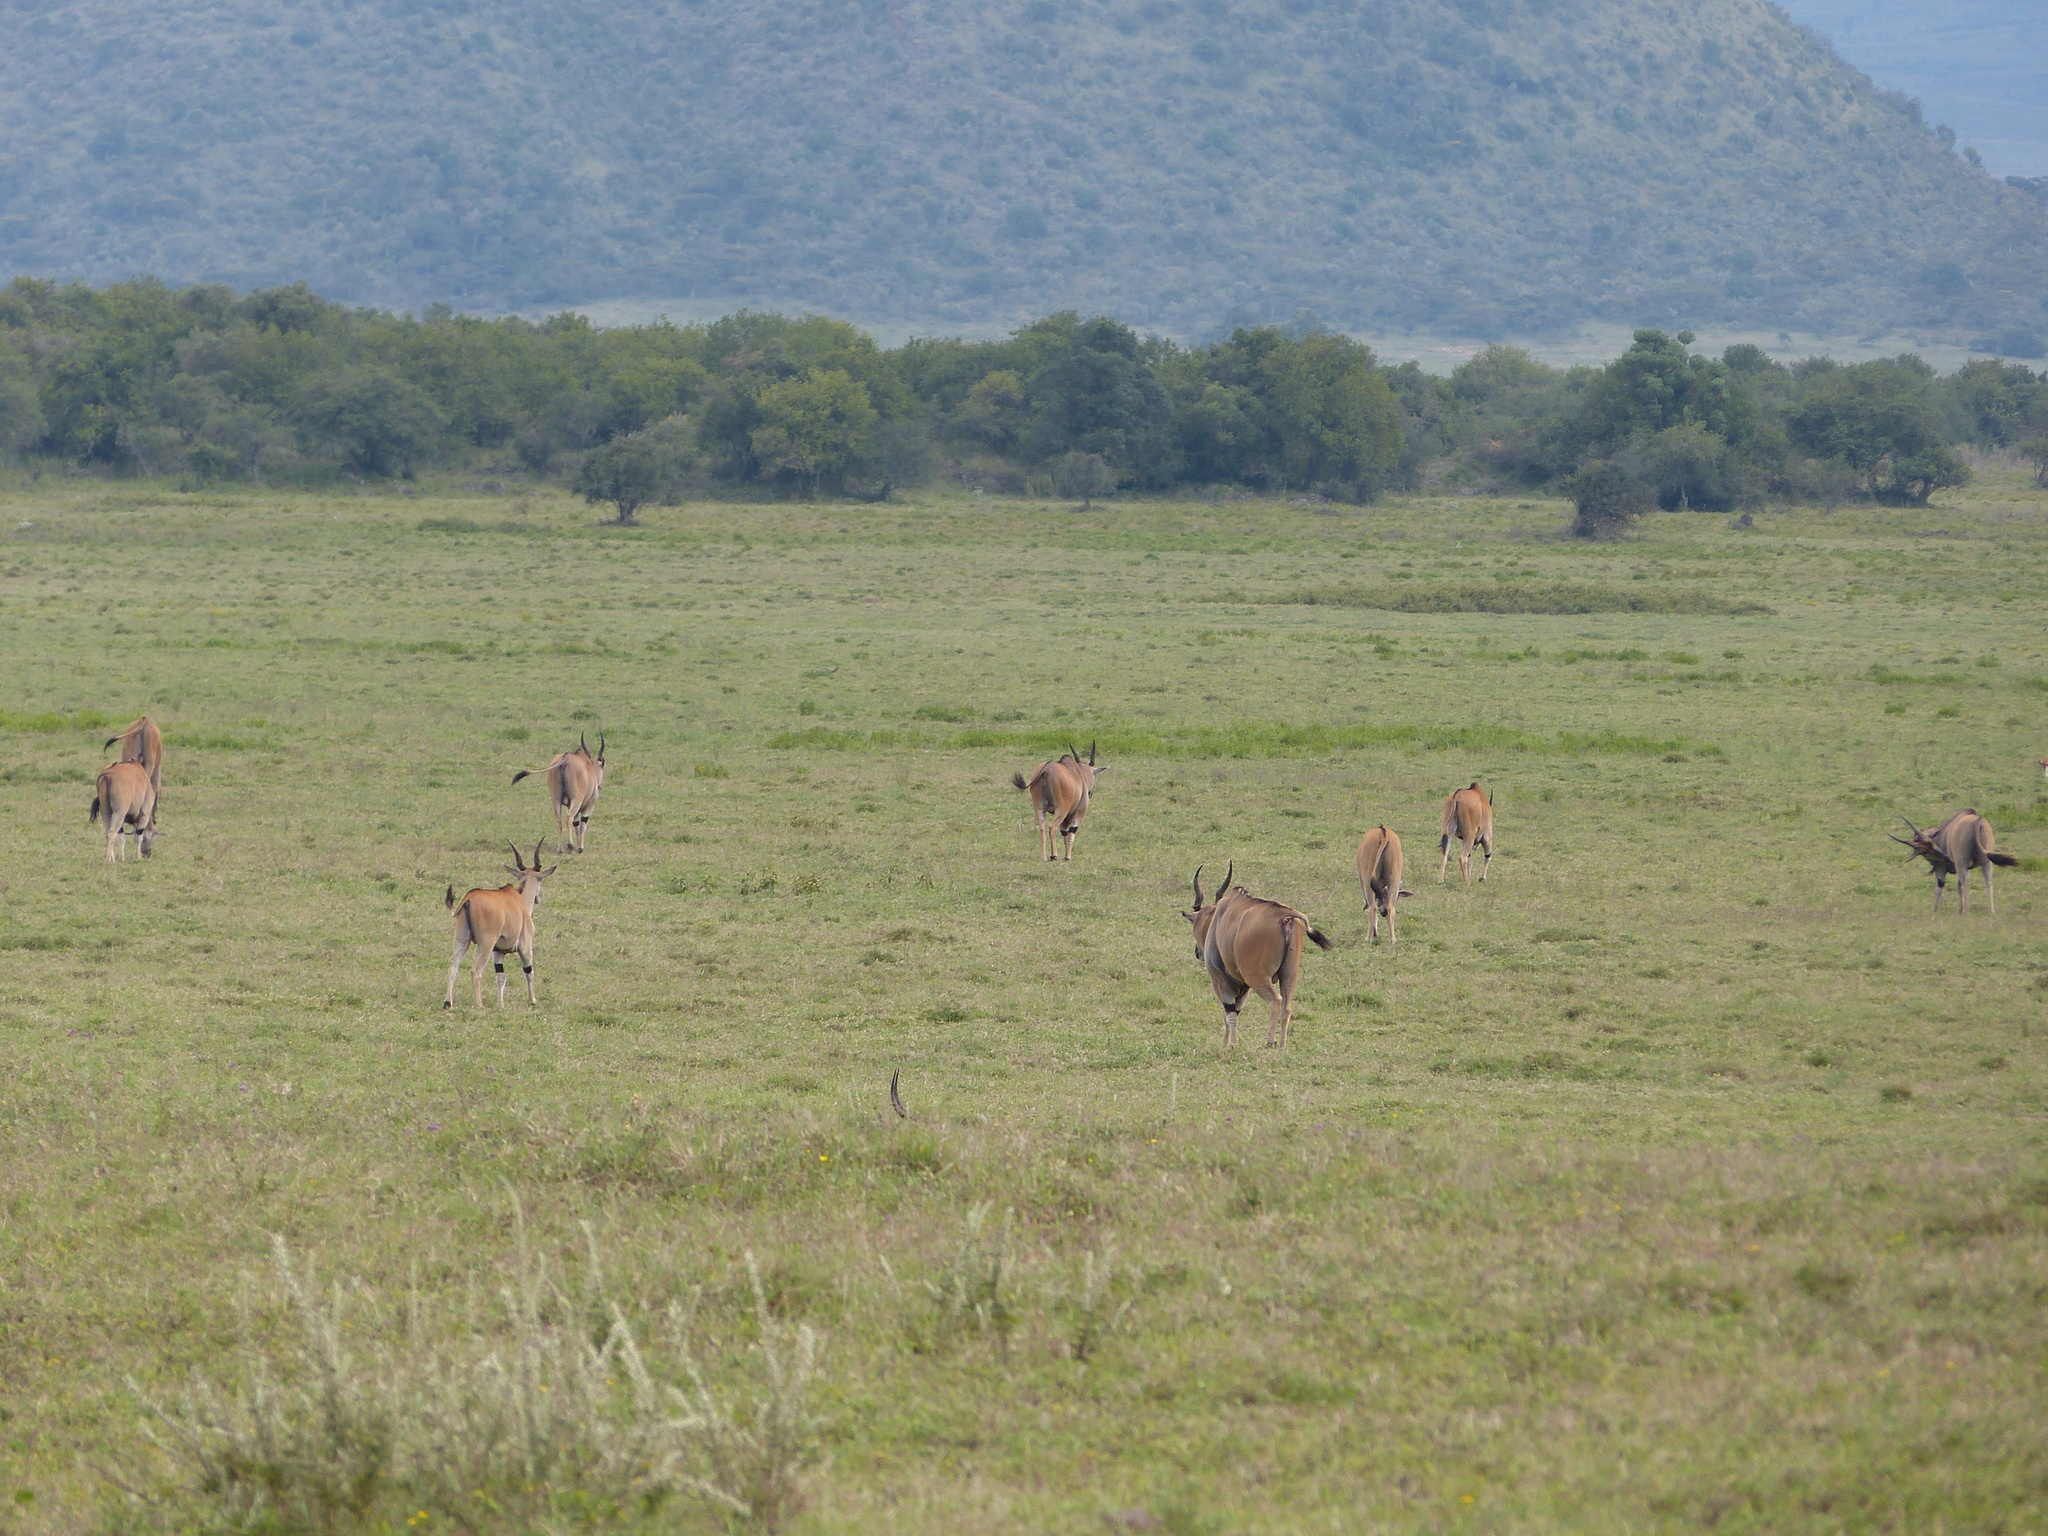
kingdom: Animalia
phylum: Chordata
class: Mammalia
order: Artiodactyla
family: Bovidae
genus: Taurotragus
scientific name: Taurotragus oryx
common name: Common eland
